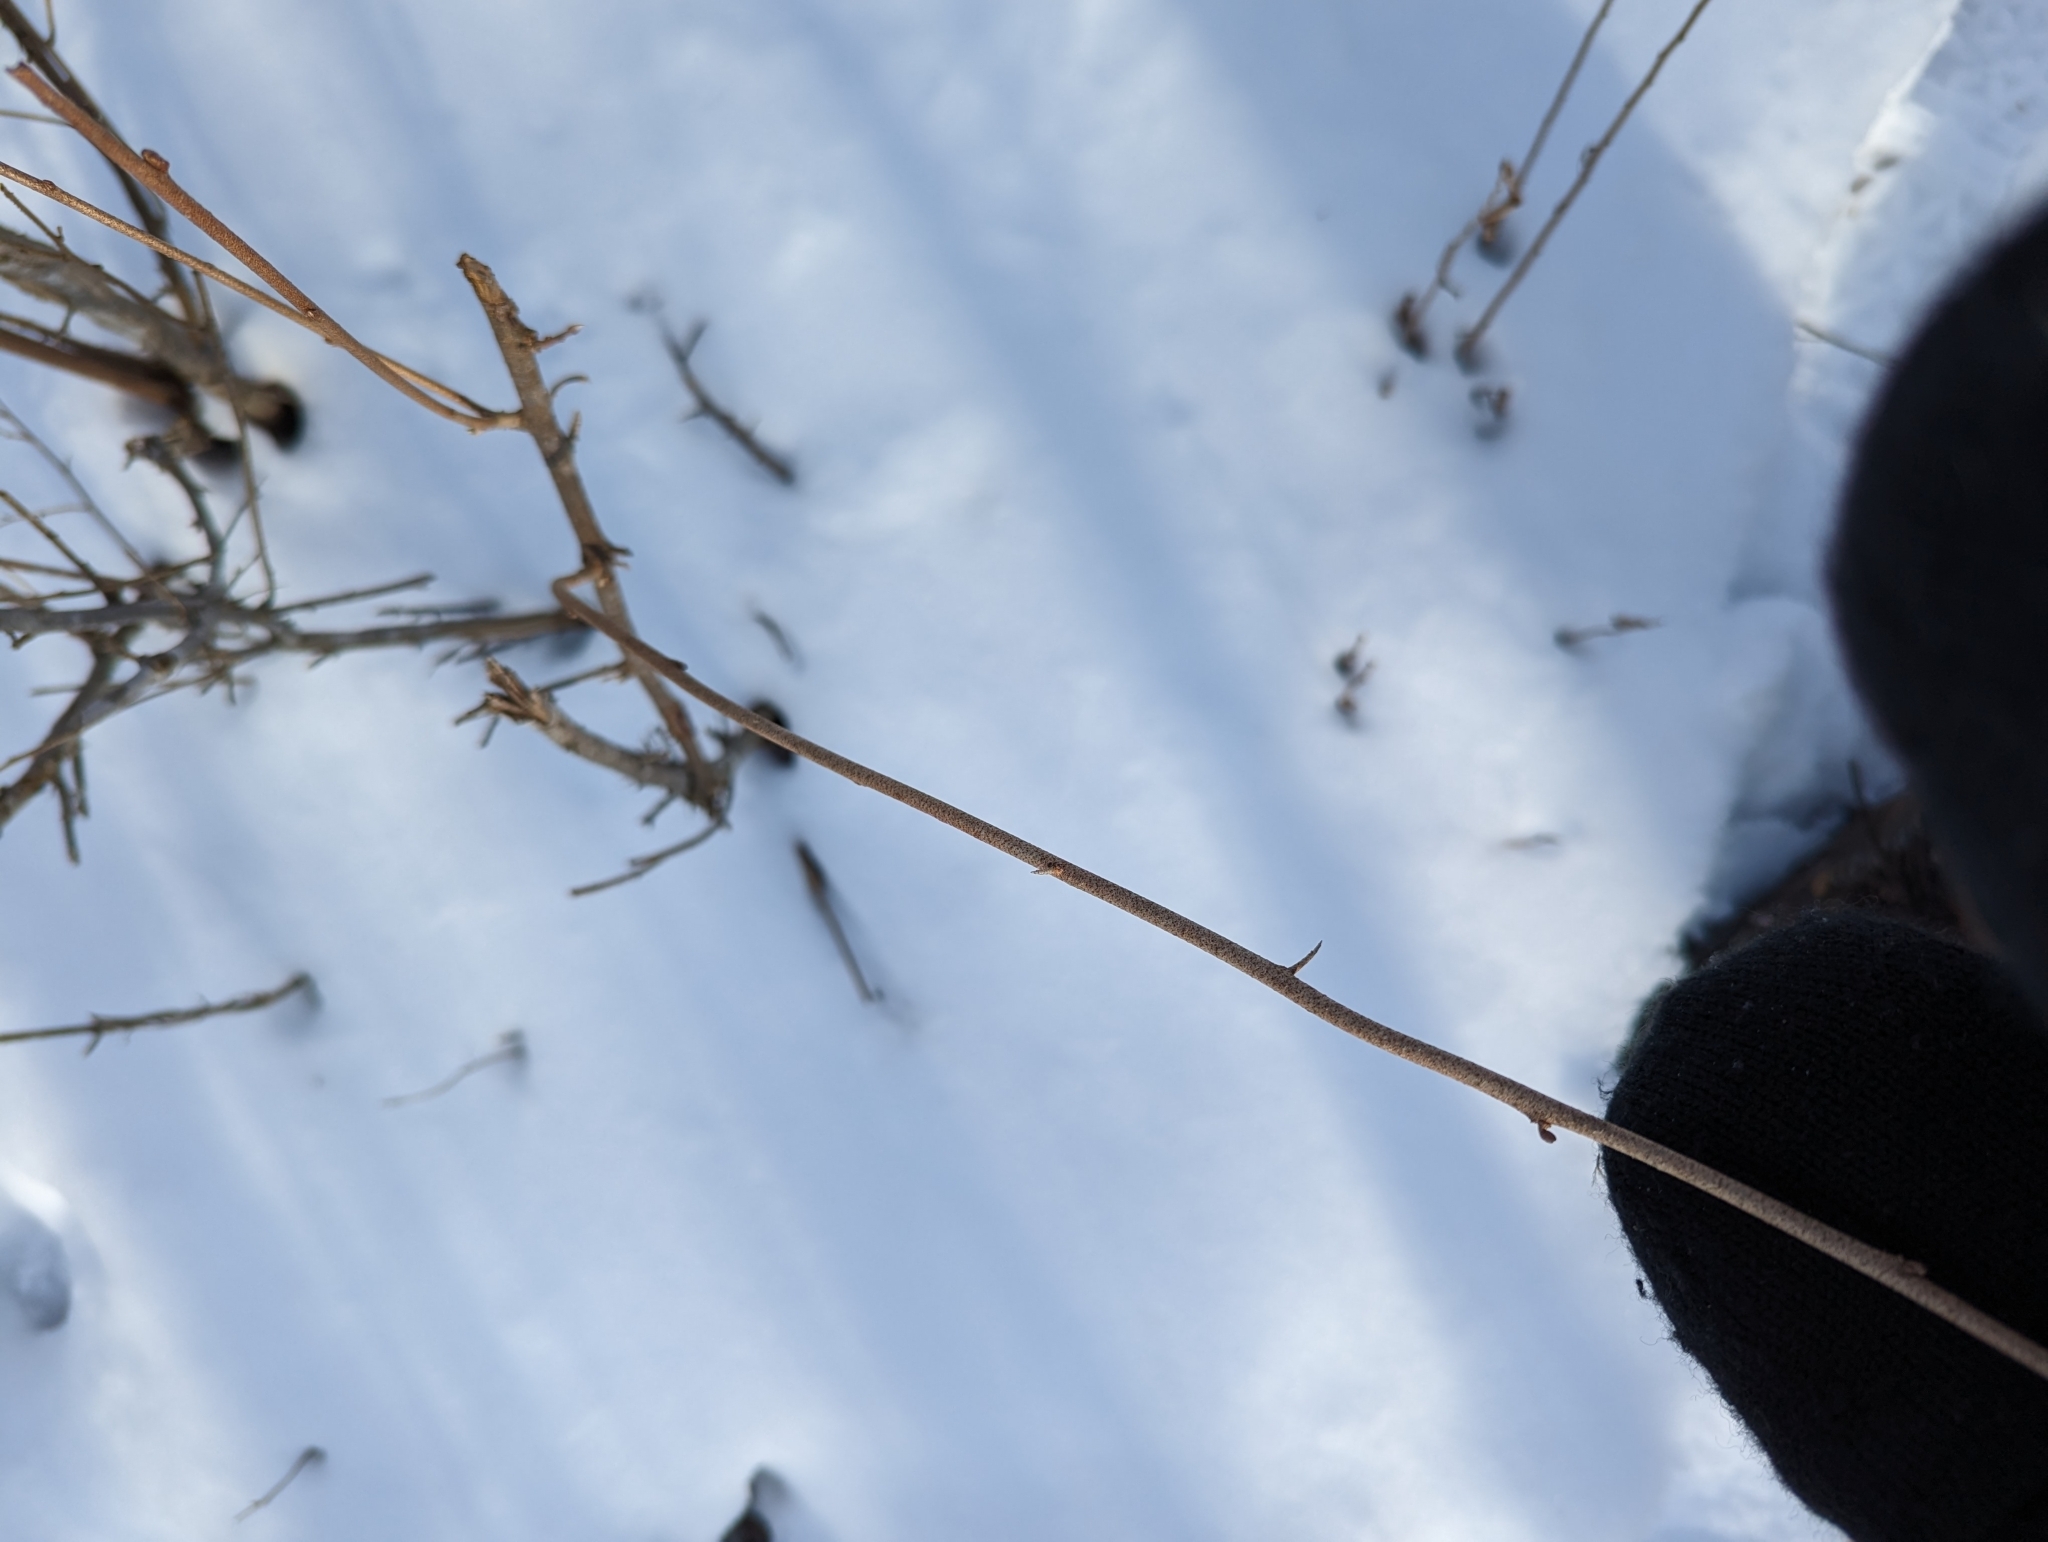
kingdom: Plantae
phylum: Tracheophyta
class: Magnoliopsida
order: Rosales
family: Elaeagnaceae
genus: Elaeagnus
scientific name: Elaeagnus umbellata
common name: Autumn olive
